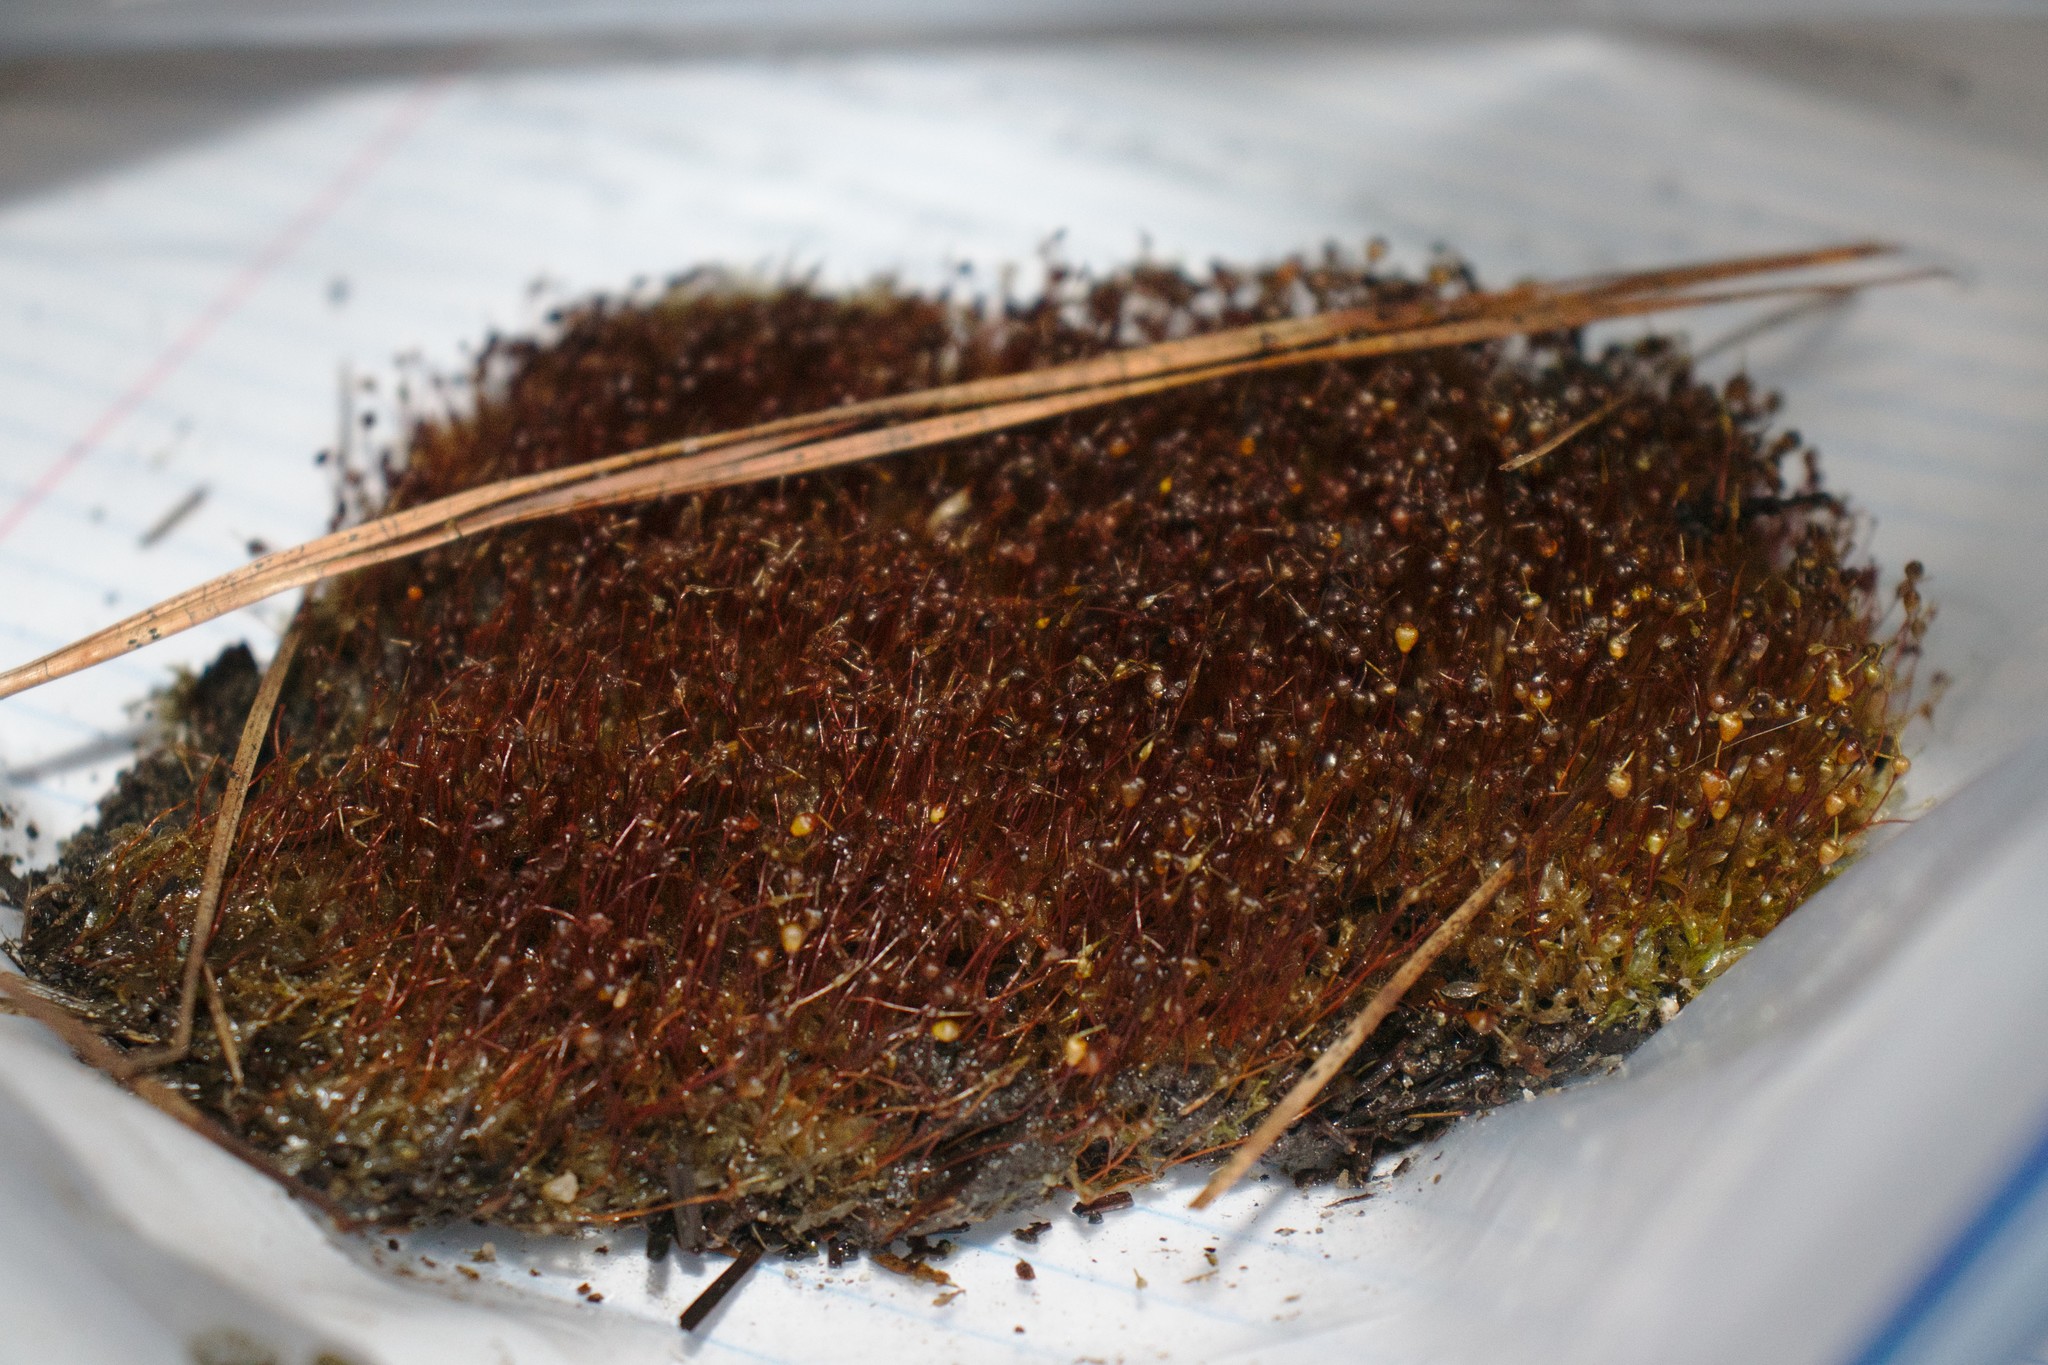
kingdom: Plantae
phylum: Bryophyta
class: Bryopsida
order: Funariales
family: Funariaceae
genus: Physcomitrium
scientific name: Physcomitrium pyriforme
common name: Common bladder-moss
